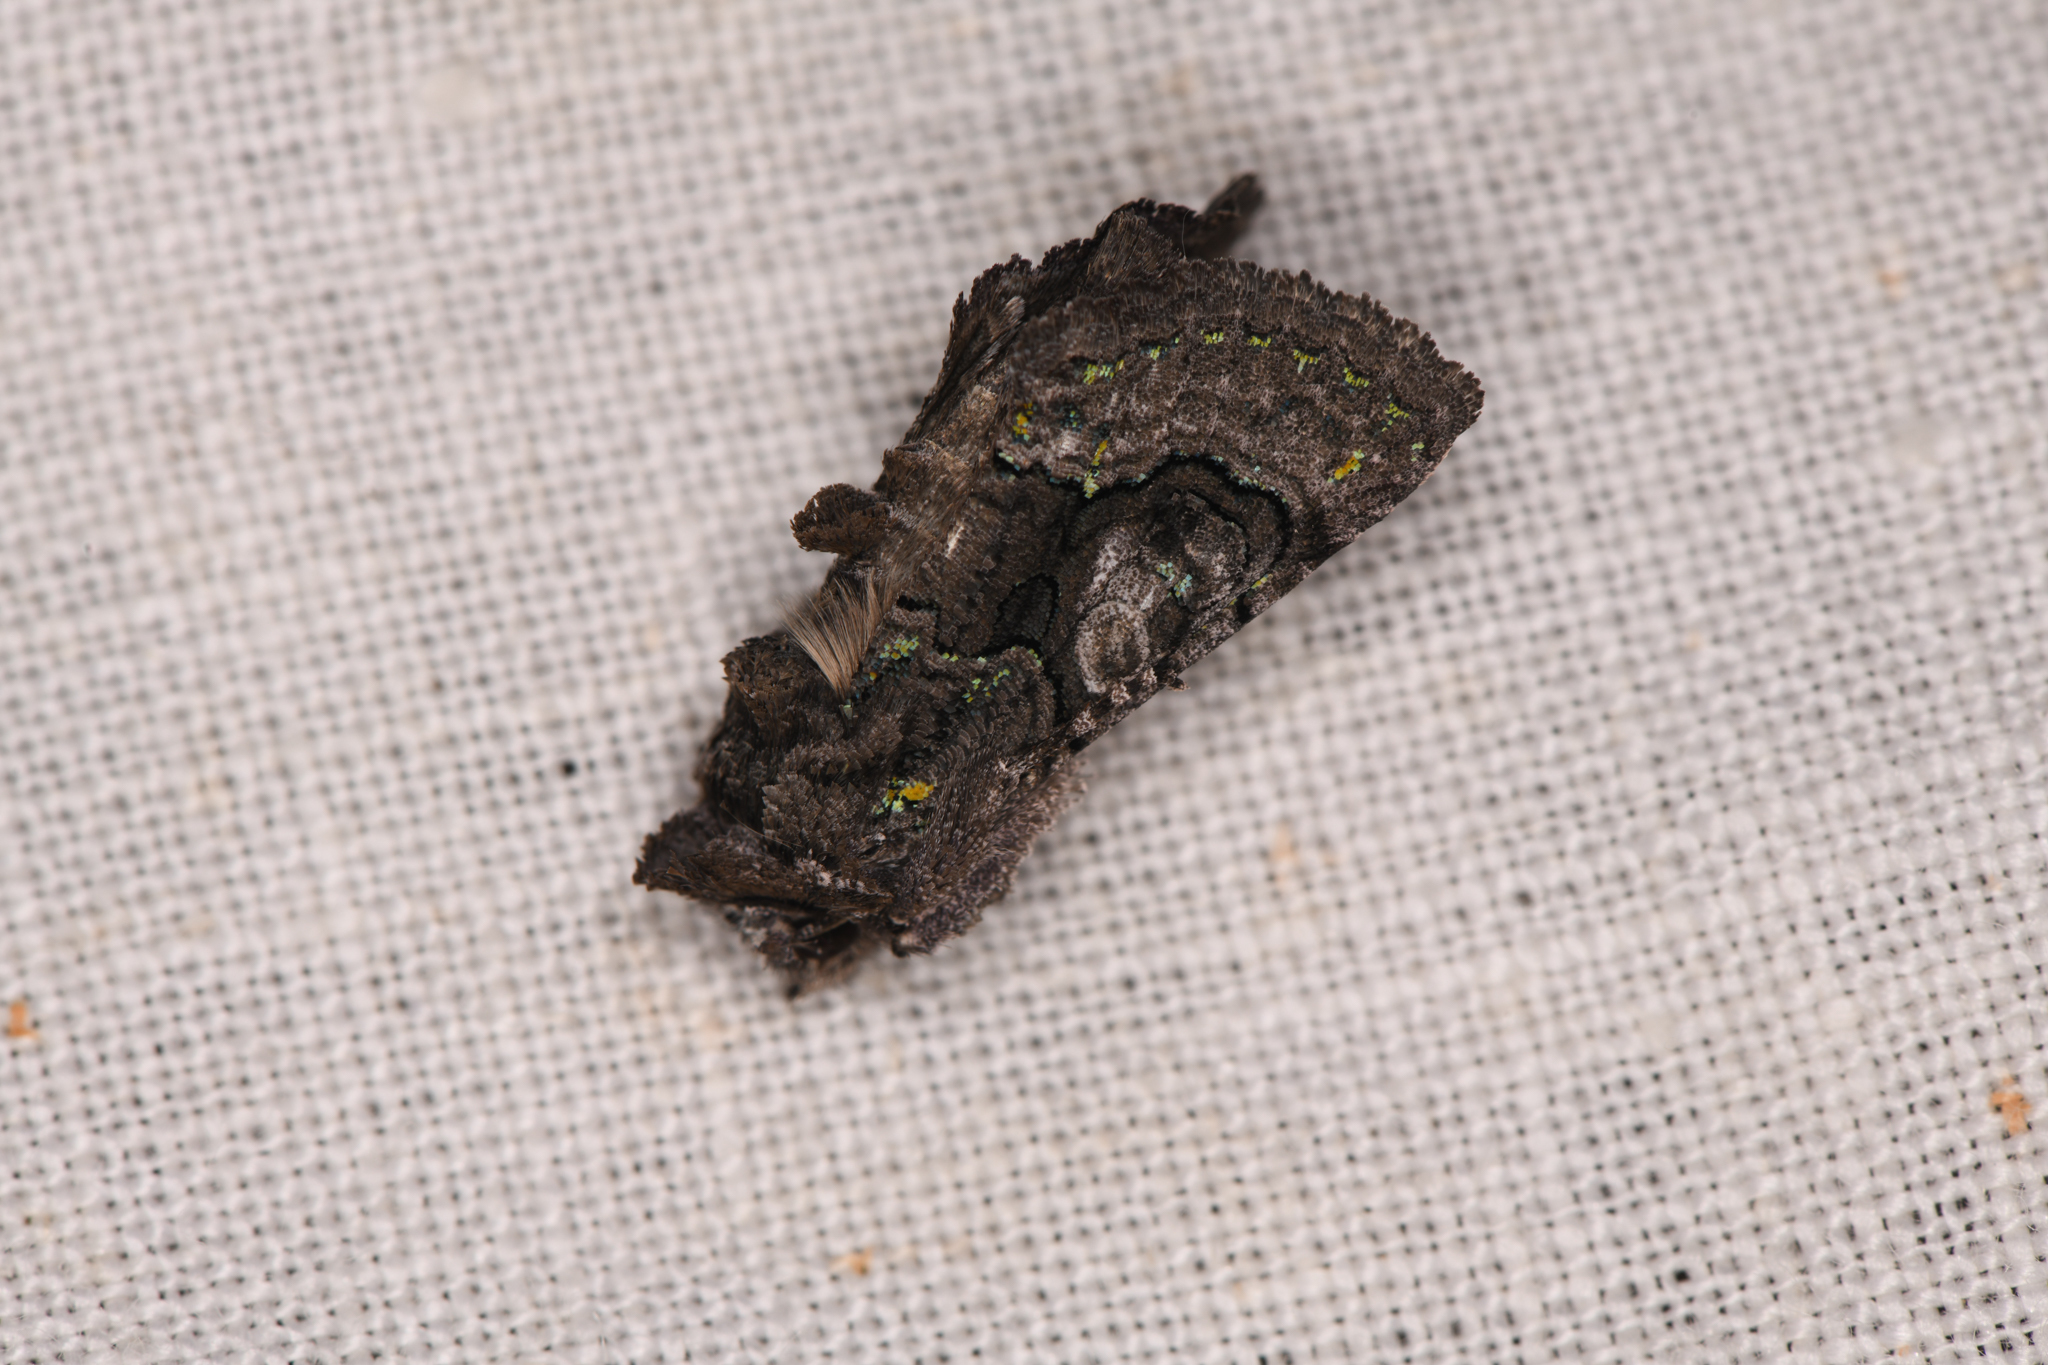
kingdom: Animalia
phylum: Arthropoda
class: Insecta
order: Lepidoptera
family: Noctuidae
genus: Behrensia
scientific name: Behrensia conchiformis
